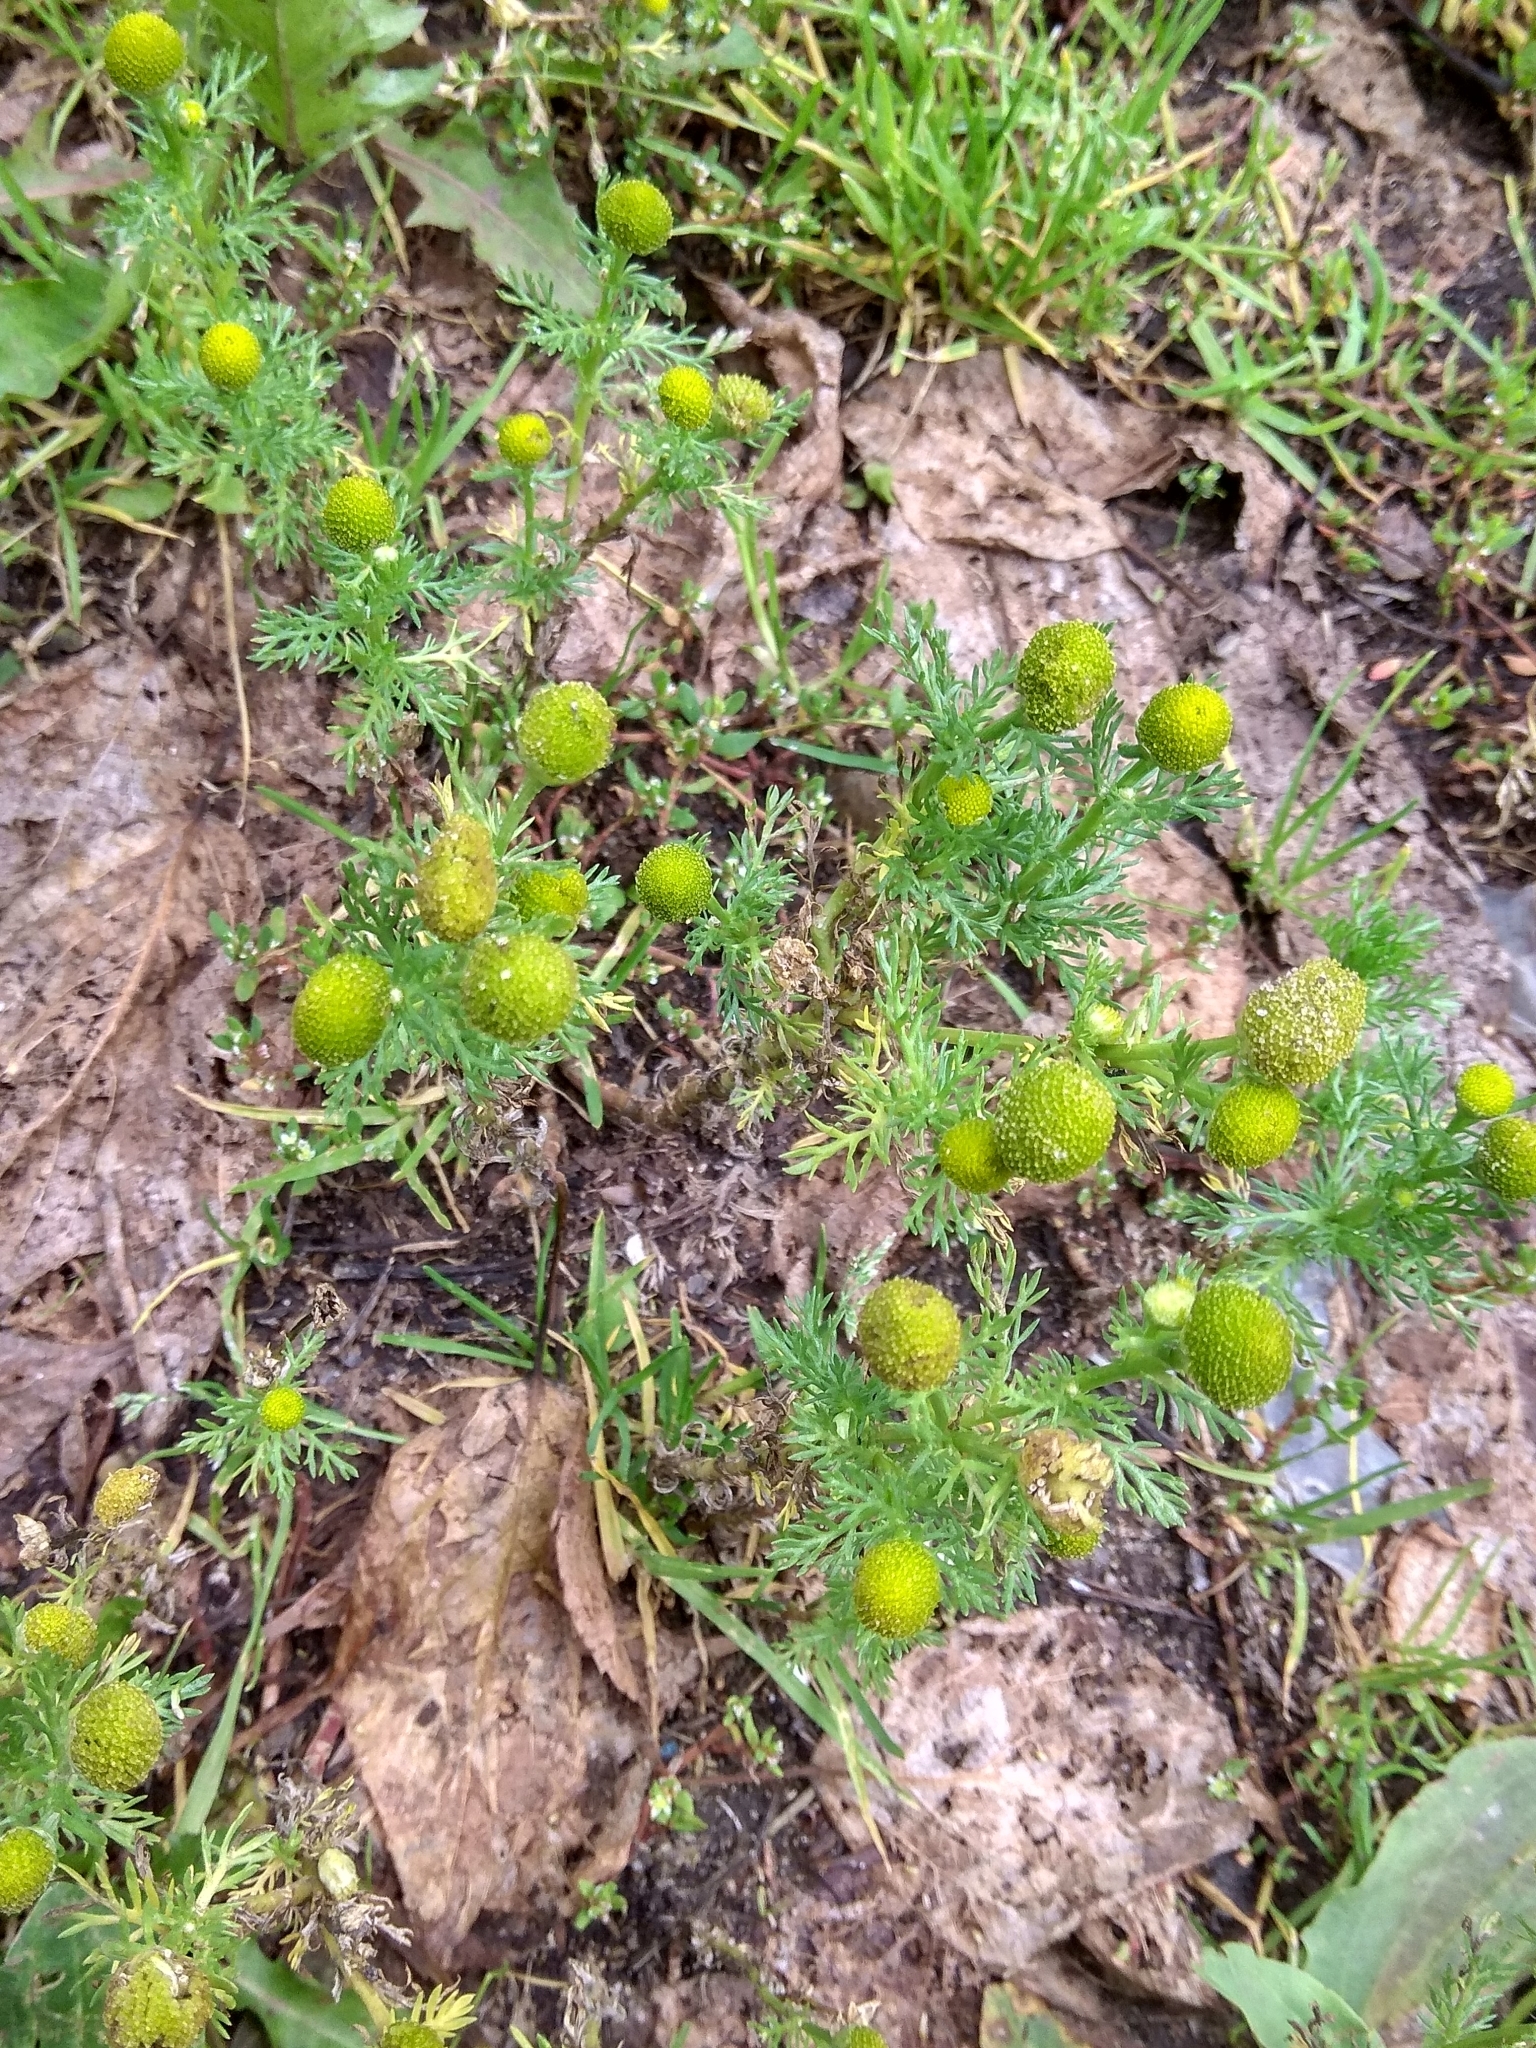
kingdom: Plantae
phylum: Tracheophyta
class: Magnoliopsida
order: Asterales
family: Asteraceae
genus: Matricaria
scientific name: Matricaria discoidea
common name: Disc mayweed
